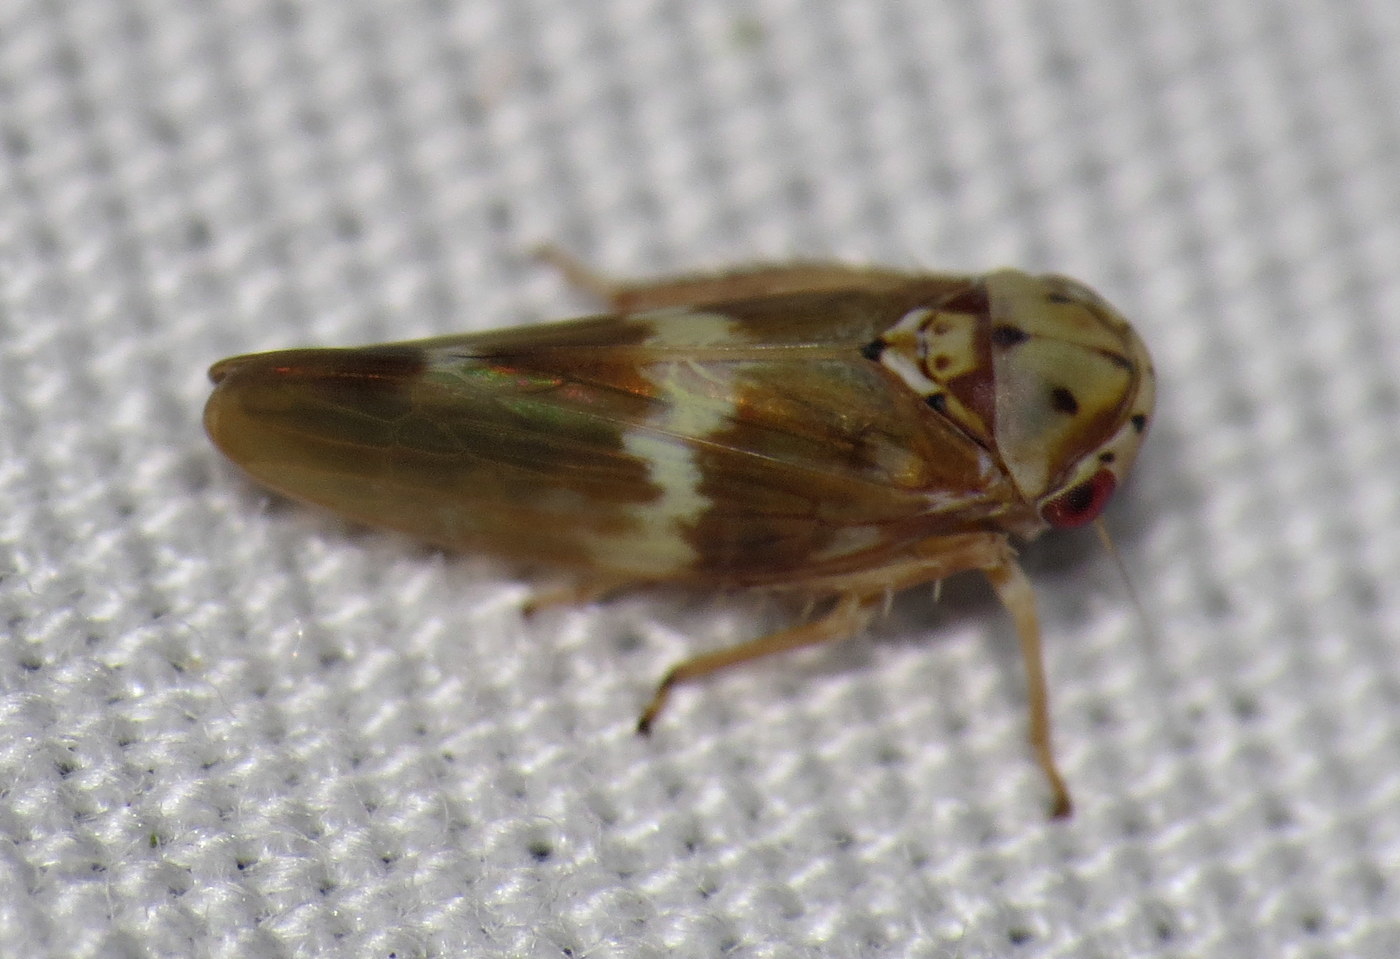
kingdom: Animalia
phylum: Arthropoda
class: Insecta
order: Hemiptera
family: Cicadellidae
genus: Agalliopsis
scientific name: Agalliopsis cervina
